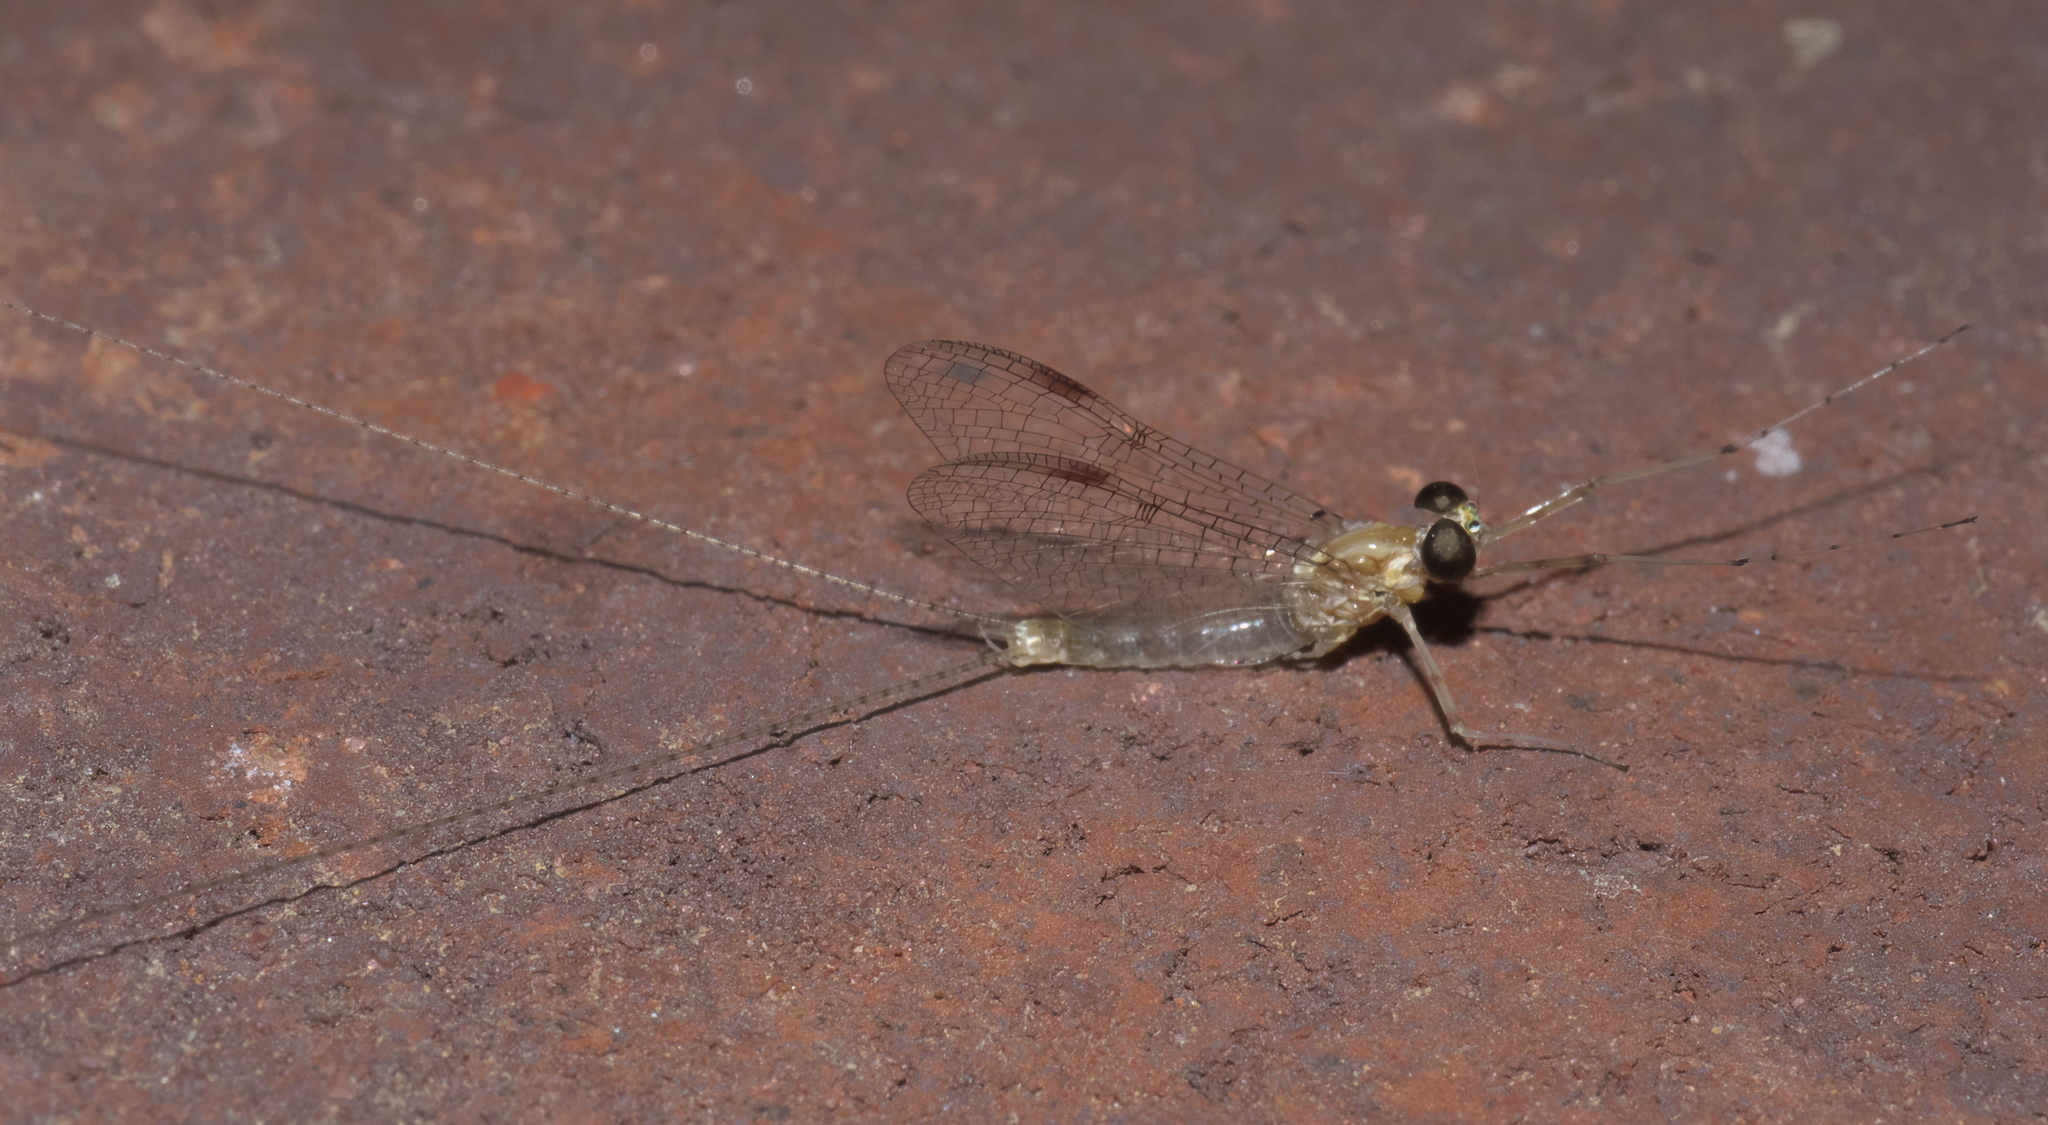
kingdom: Animalia
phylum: Arthropoda
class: Insecta
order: Ephemeroptera
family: Heptageniidae
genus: Stenonema
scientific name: Stenonema femoratum
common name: Dark cahill
